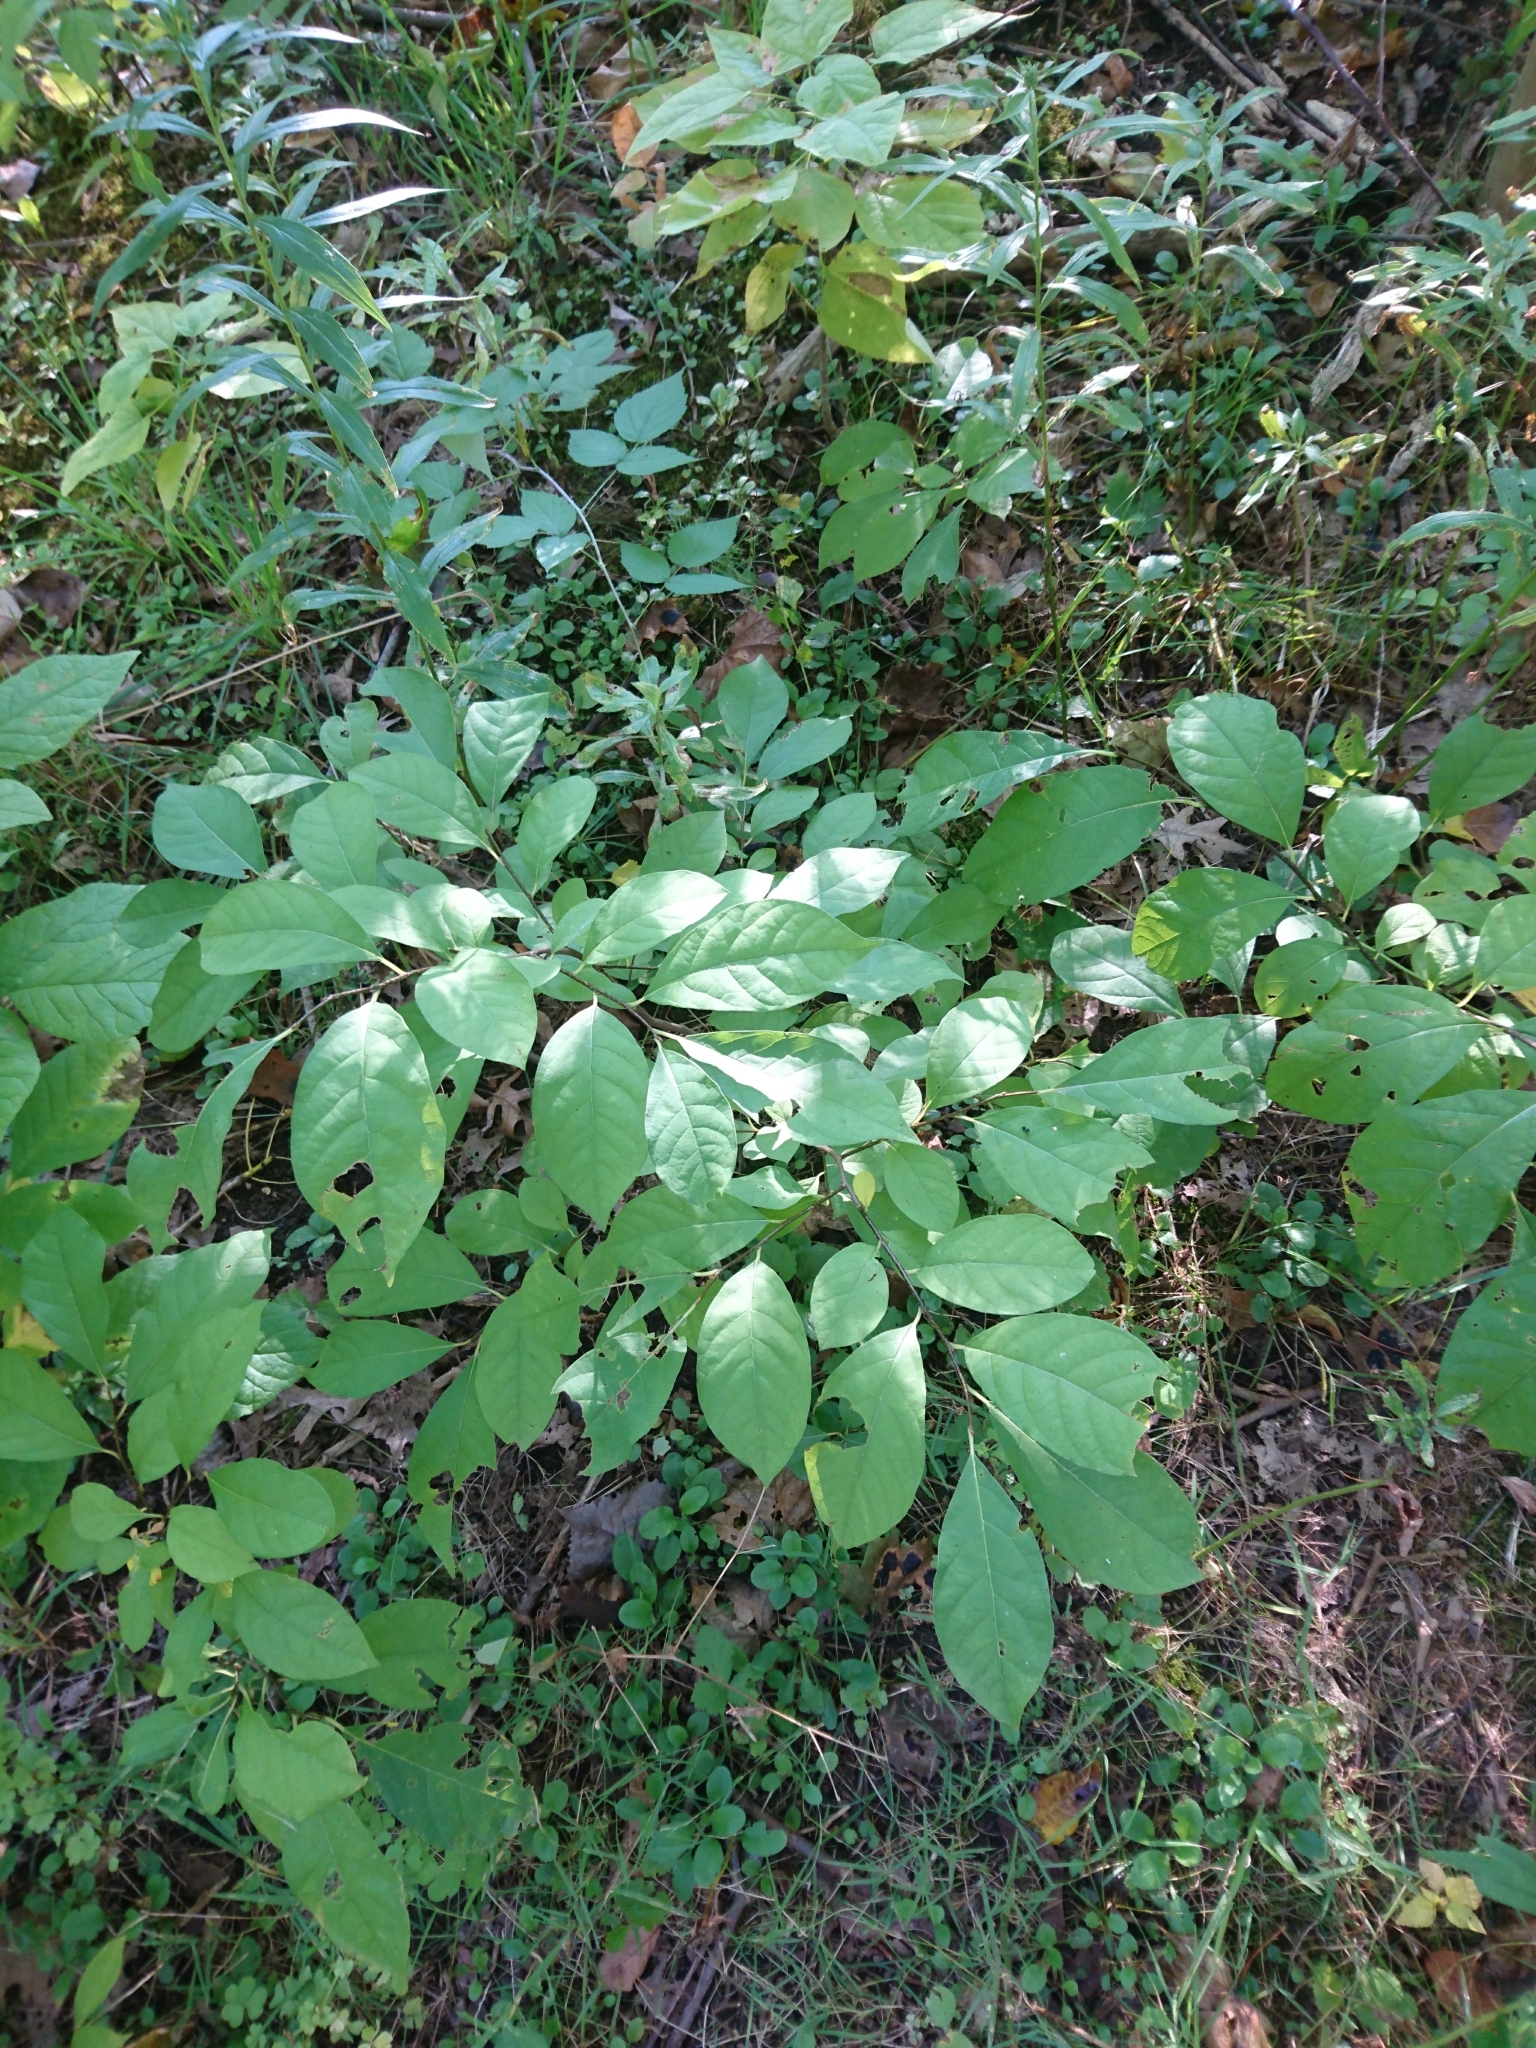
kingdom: Plantae
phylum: Tracheophyta
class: Magnoliopsida
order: Laurales
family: Lauraceae
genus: Lindera
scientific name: Lindera benzoin
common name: Spicebush
